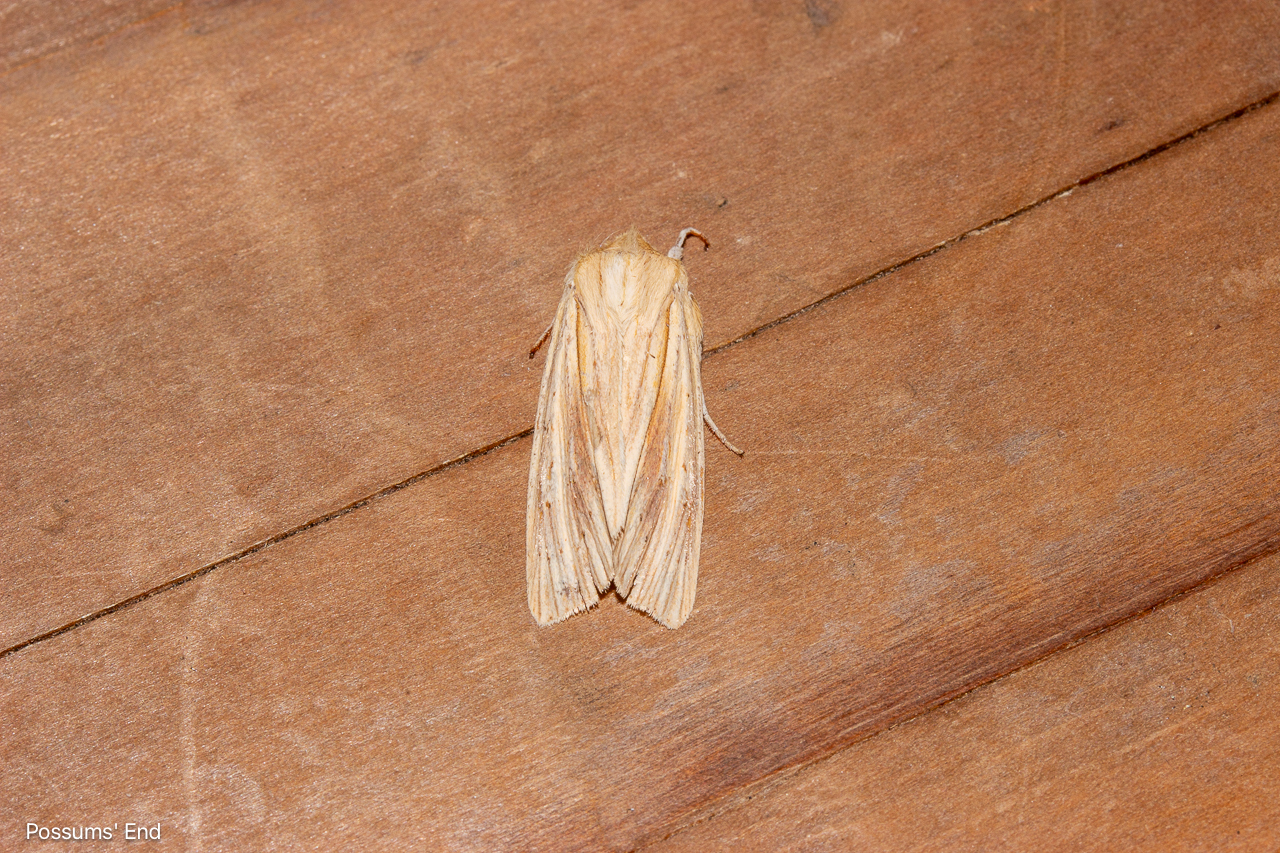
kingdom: Animalia
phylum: Arthropoda
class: Insecta
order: Lepidoptera
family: Noctuidae
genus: Ichneutica
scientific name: Ichneutica semivittata
